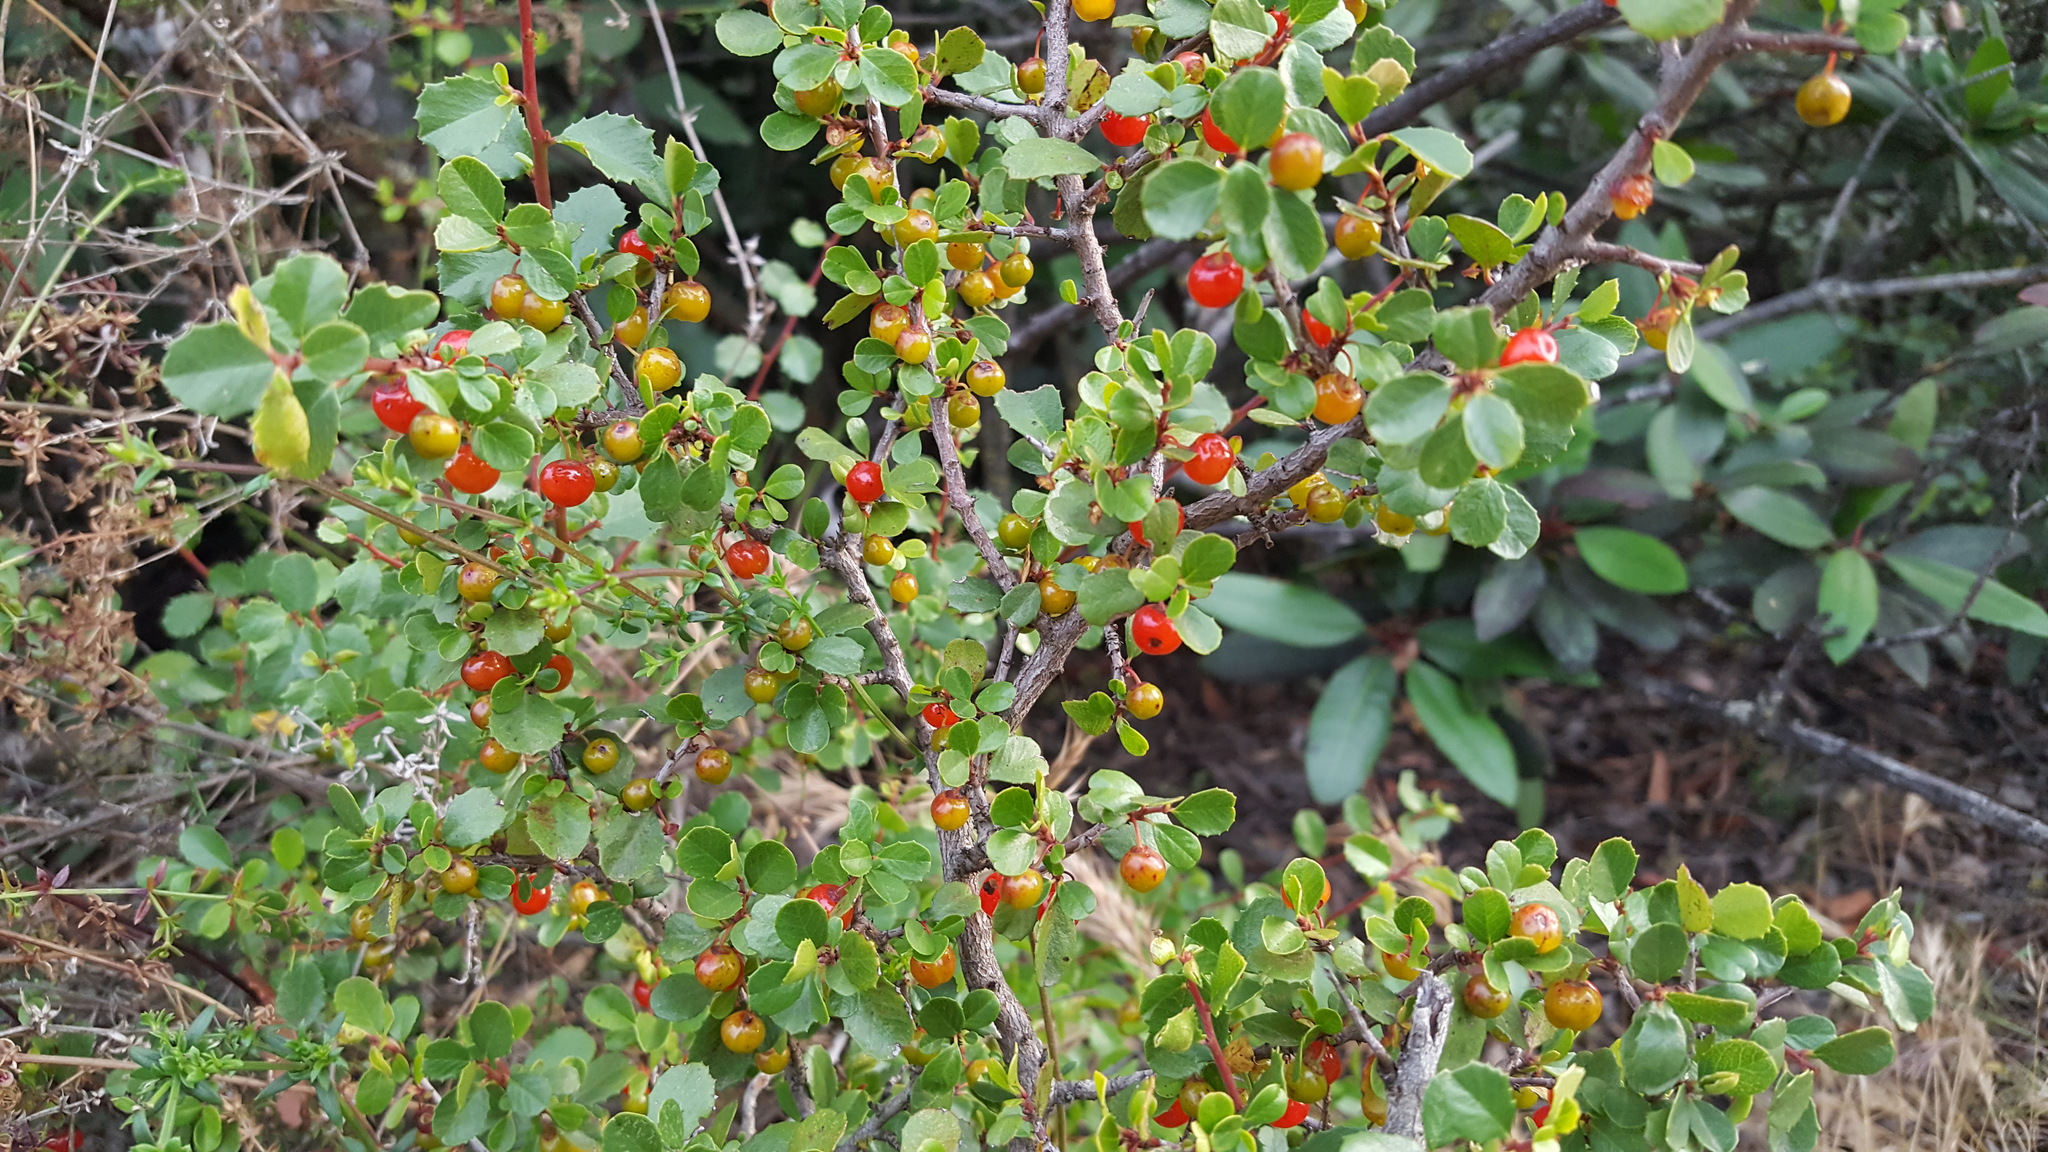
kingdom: Plantae
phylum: Tracheophyta
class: Magnoliopsida
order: Rosales
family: Rhamnaceae
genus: Endotropis
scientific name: Endotropis crocea
